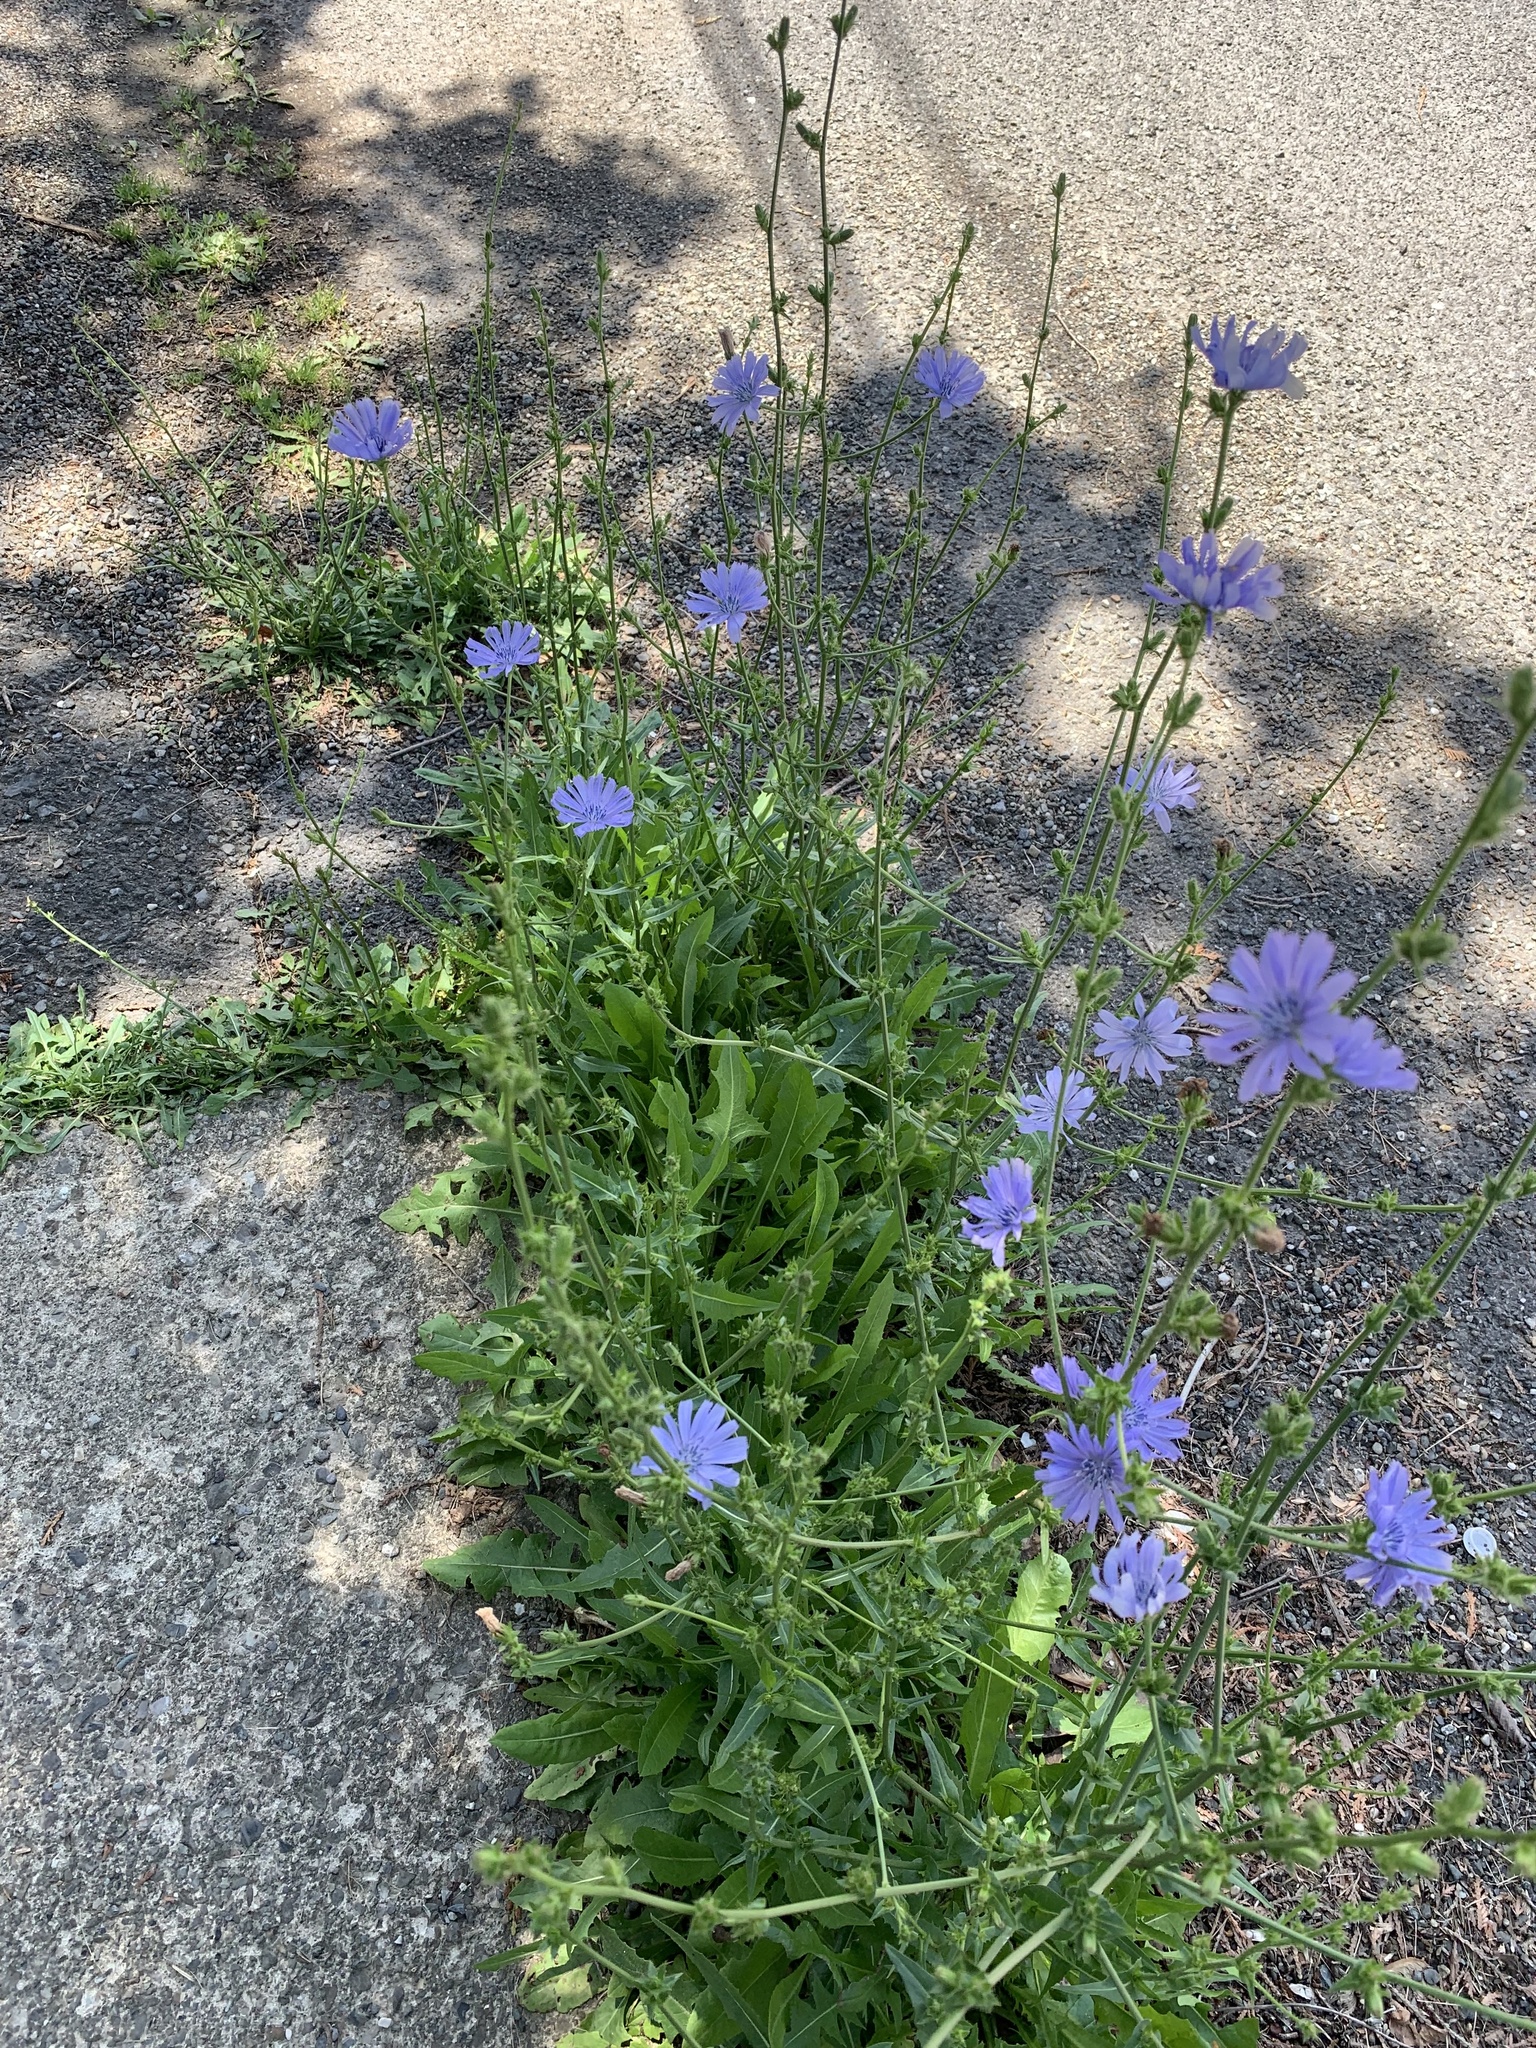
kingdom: Plantae
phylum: Tracheophyta
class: Magnoliopsida
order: Asterales
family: Asteraceae
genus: Cichorium
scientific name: Cichorium intybus
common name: Chicory
